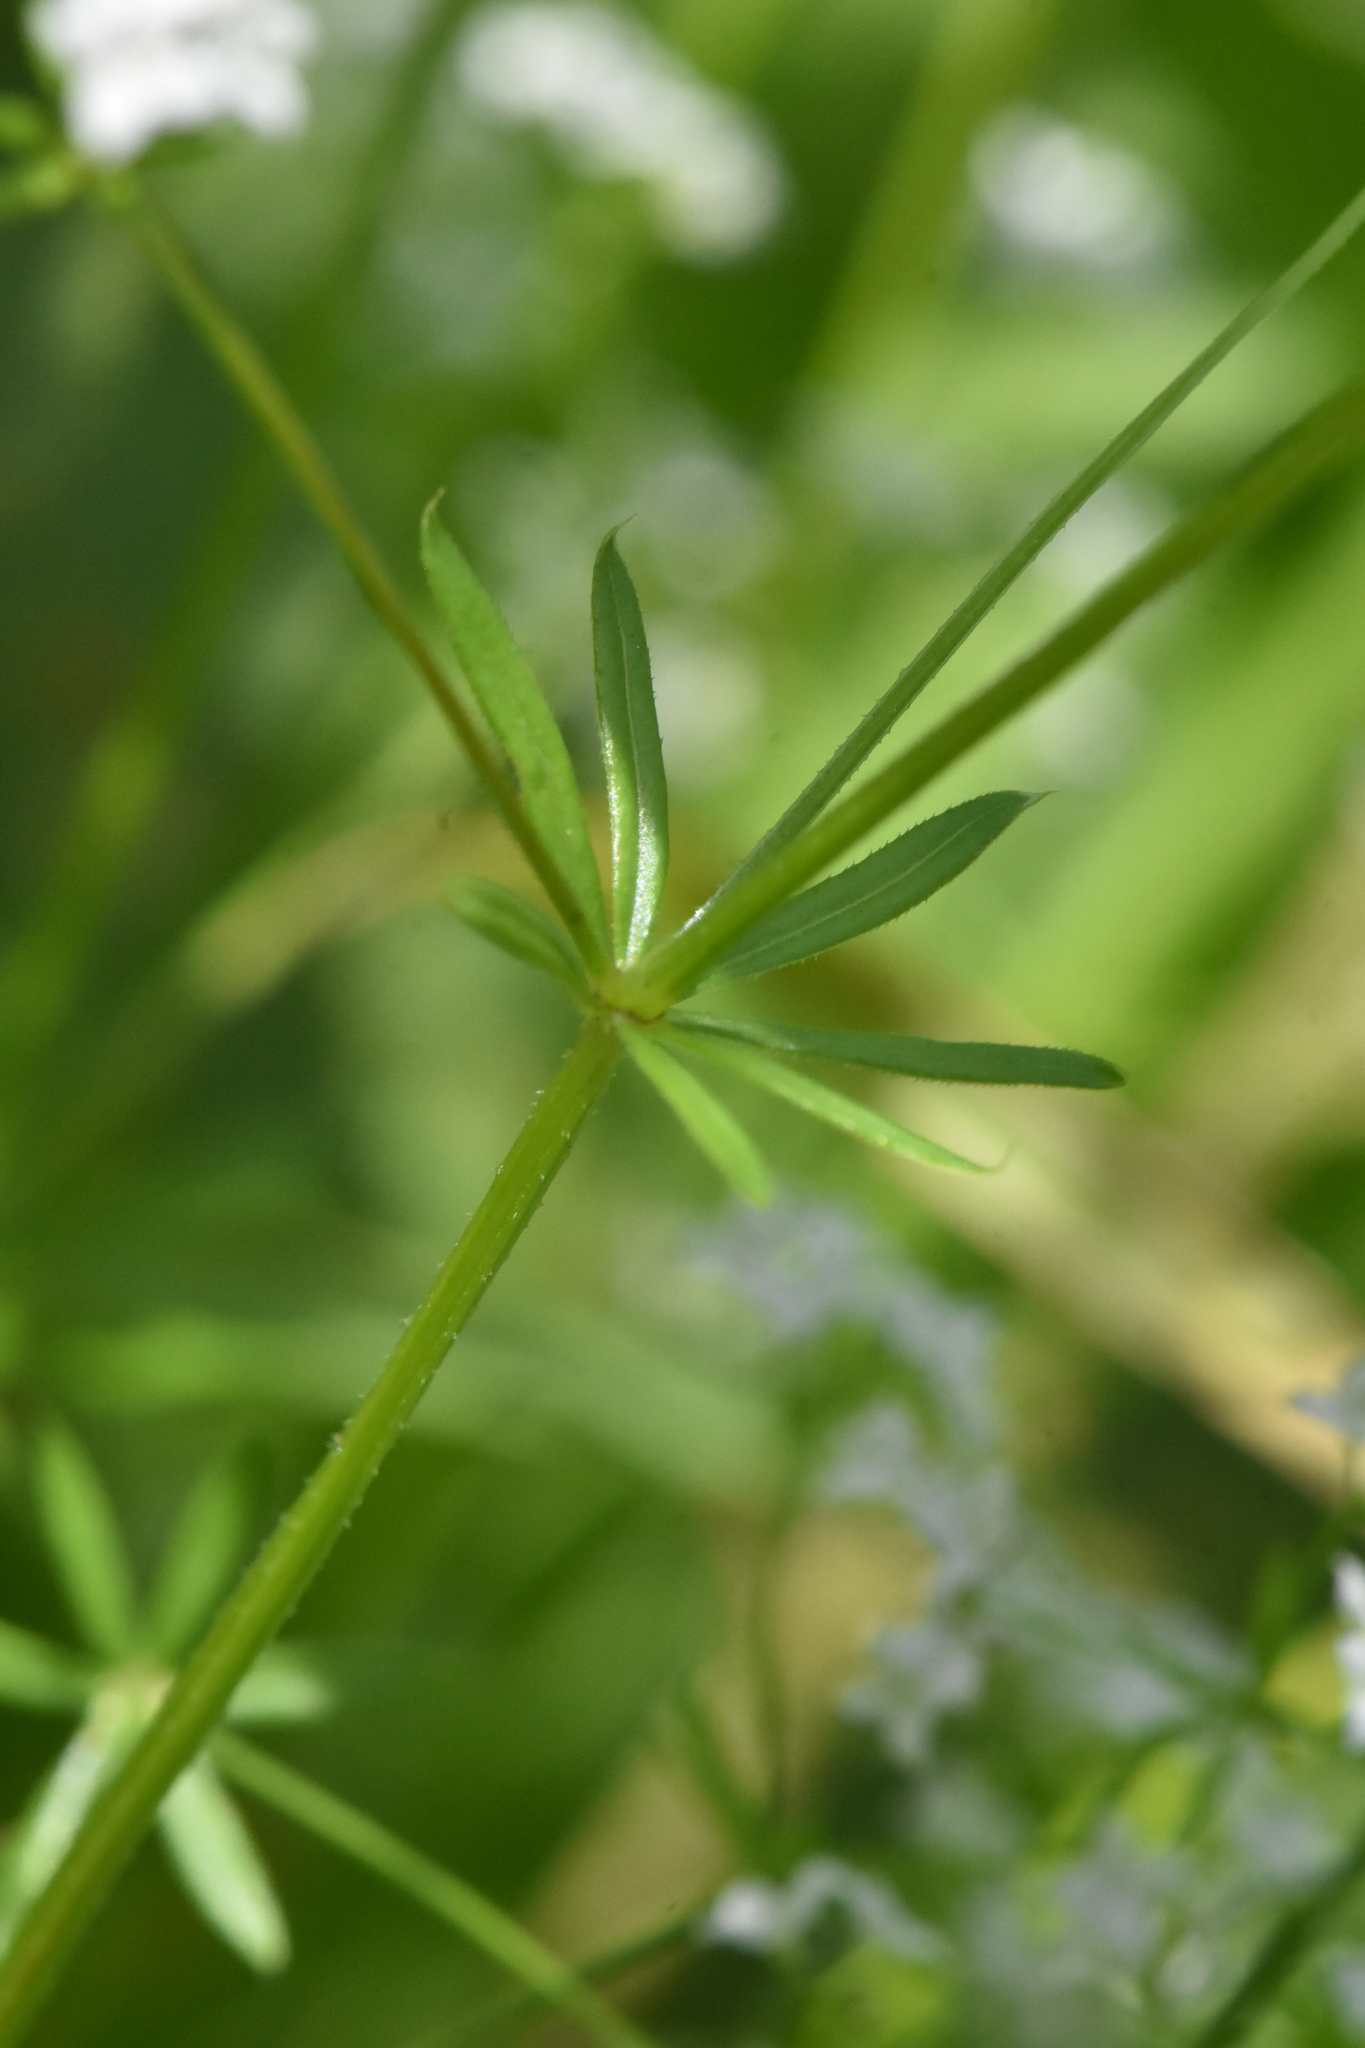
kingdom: Plantae
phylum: Tracheophyta
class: Magnoliopsida
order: Gentianales
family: Rubiaceae
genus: Galium
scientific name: Galium uliginosum
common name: Fen bedstraw
